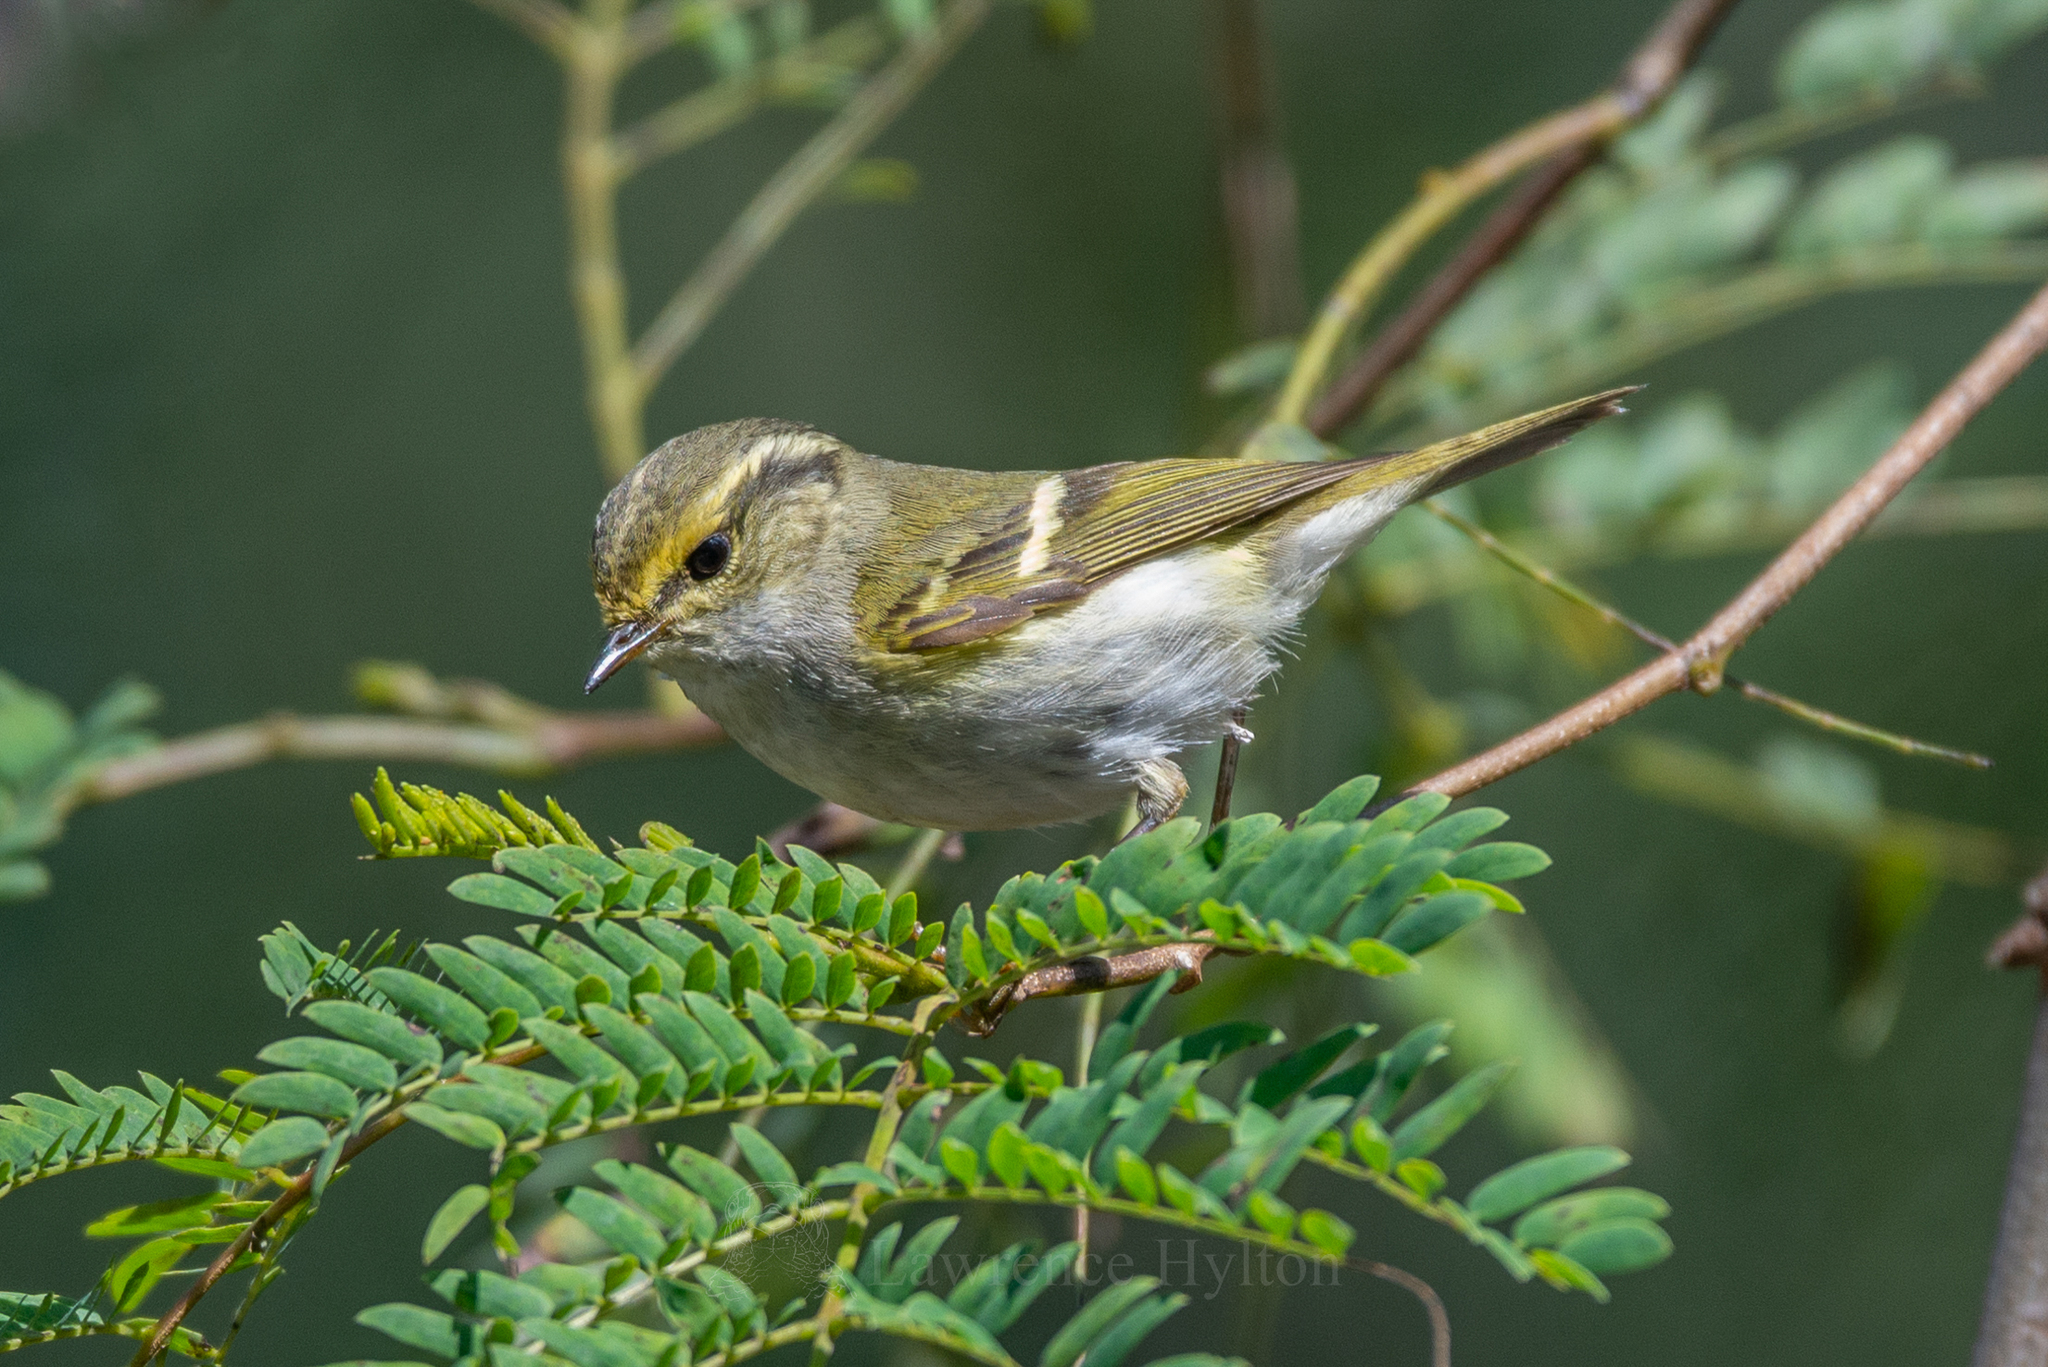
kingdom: Animalia
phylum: Chordata
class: Aves
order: Passeriformes
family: Phylloscopidae
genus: Phylloscopus
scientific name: Phylloscopus proregulus
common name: Pallas's leaf warbler
